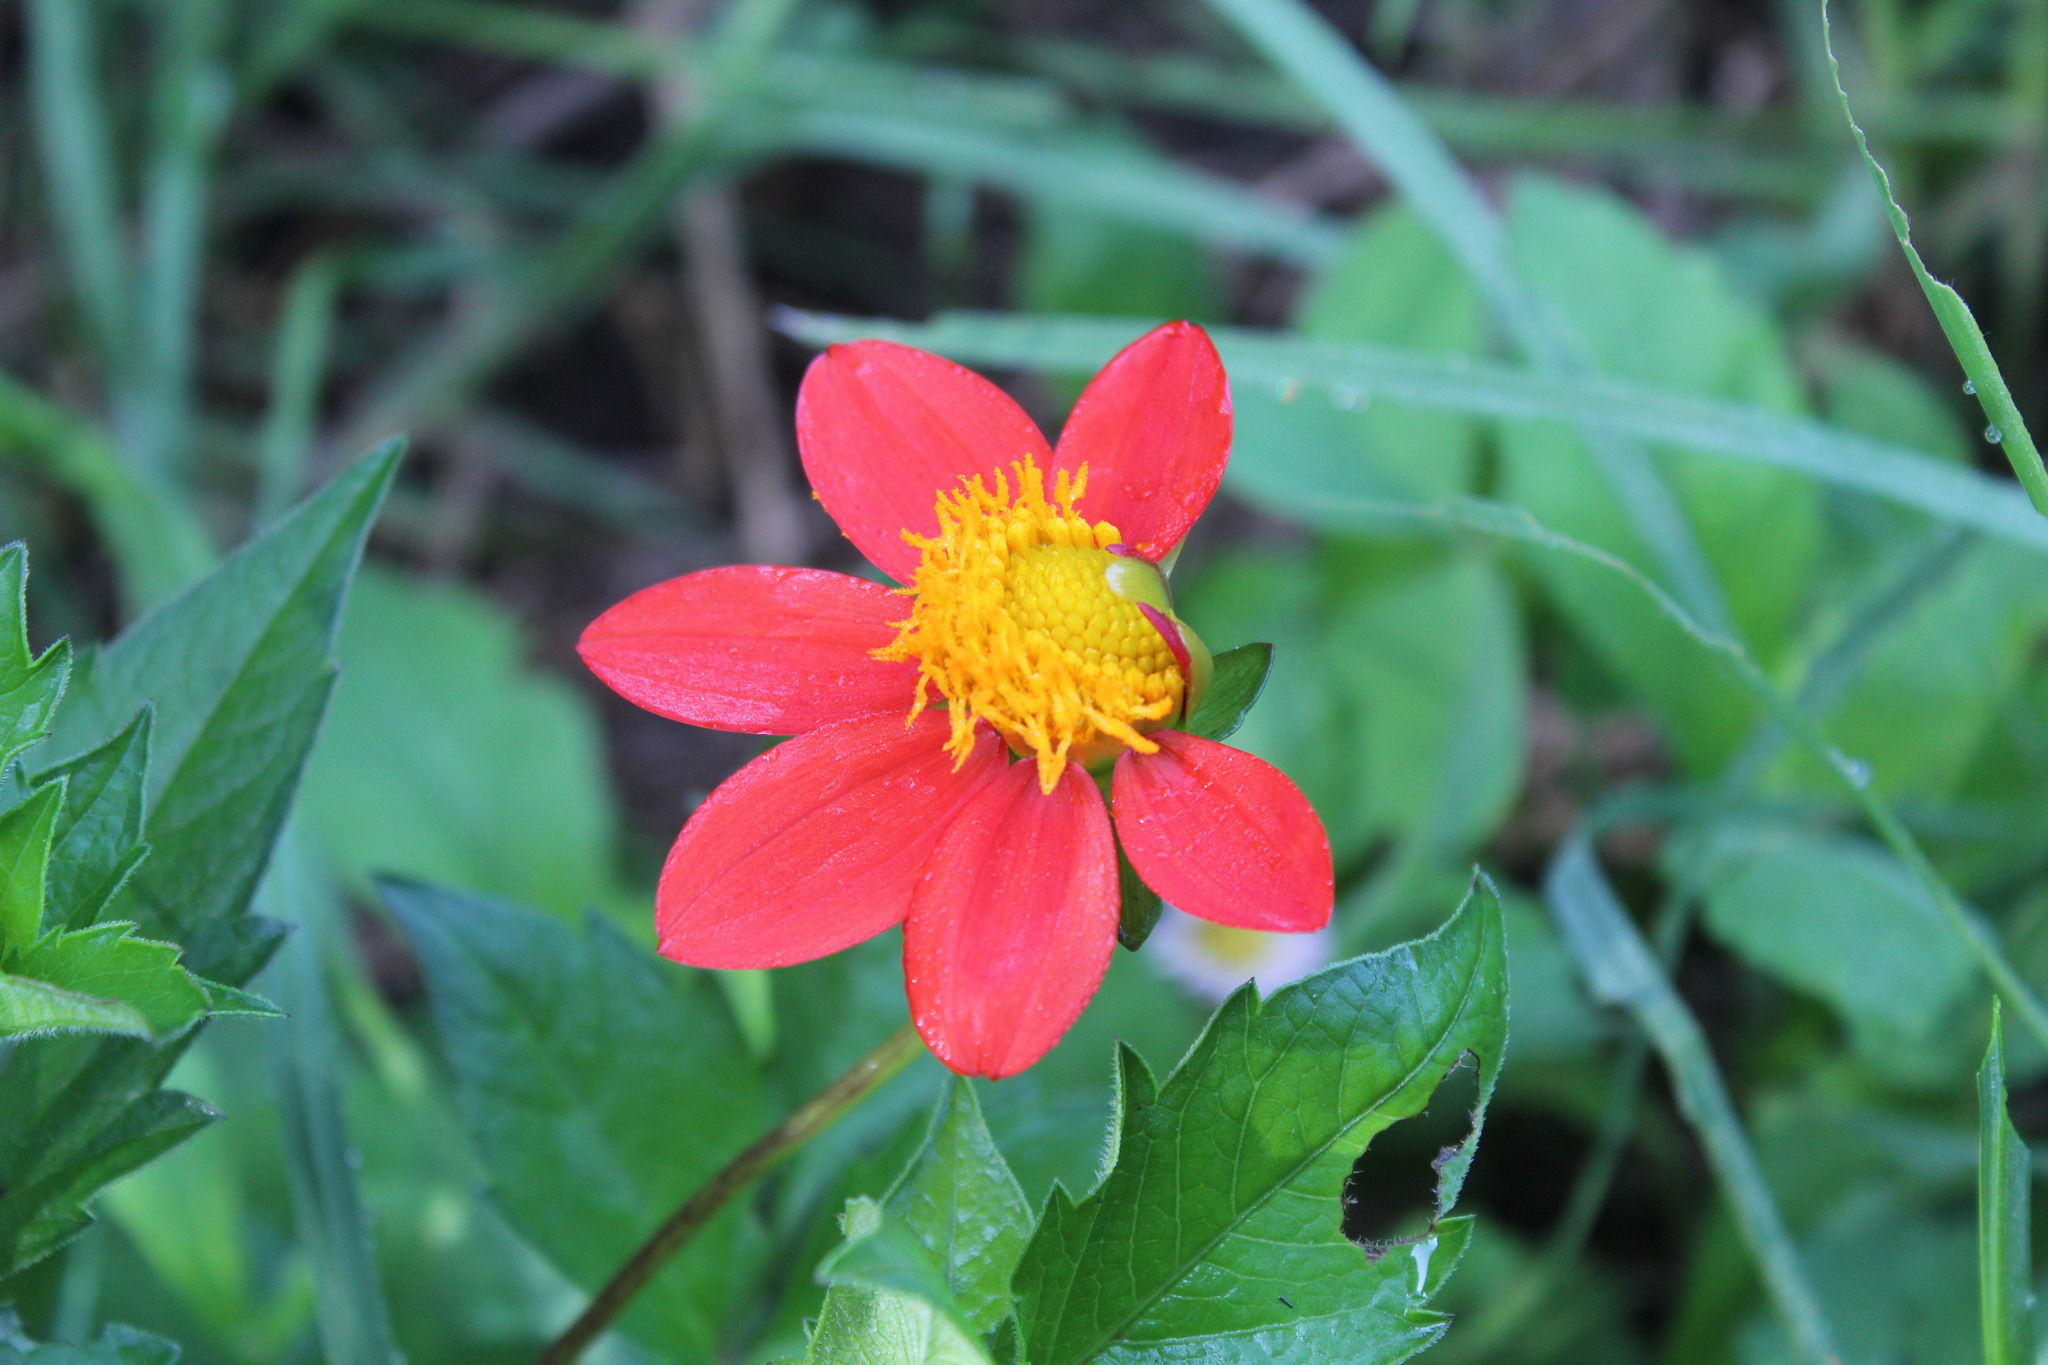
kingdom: Plantae
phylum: Tracheophyta
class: Magnoliopsida
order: Asterales
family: Asteraceae
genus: Dahlia
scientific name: Dahlia coccinea
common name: Red dahlia
